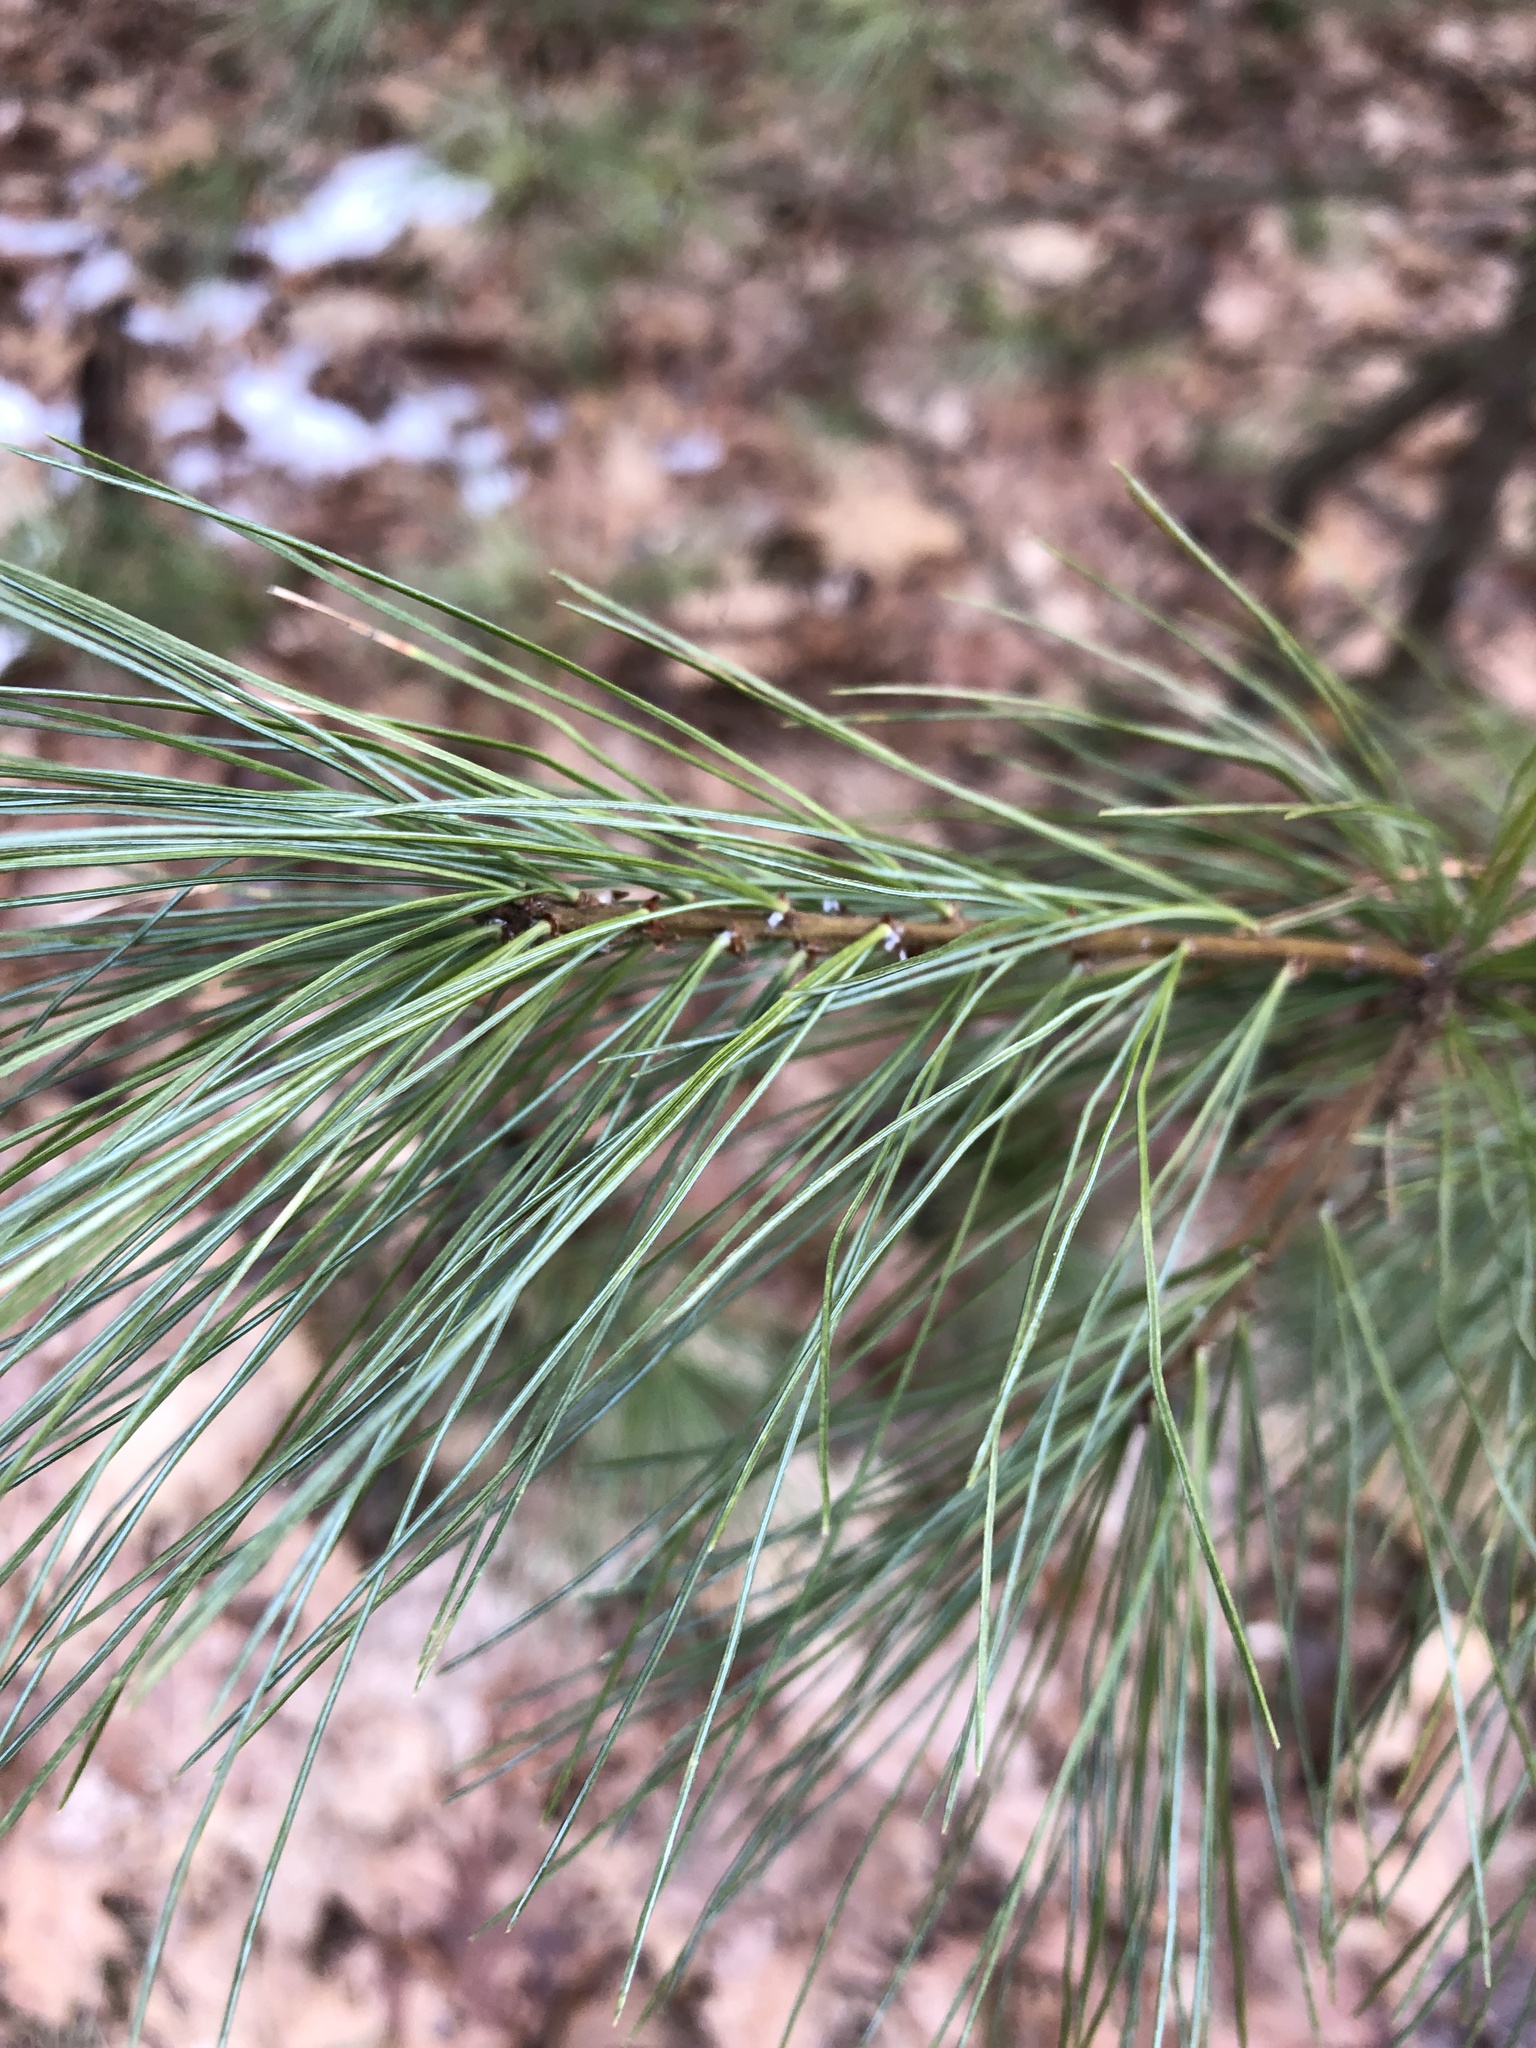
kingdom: Plantae
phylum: Tracheophyta
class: Pinopsida
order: Pinales
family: Pinaceae
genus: Pinus
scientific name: Pinus strobus
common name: Weymouth pine
